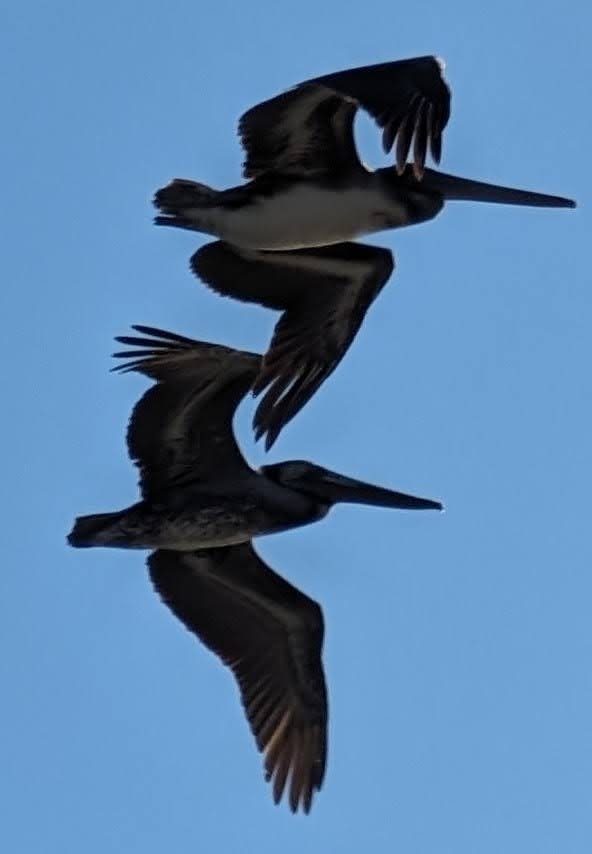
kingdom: Animalia
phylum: Chordata
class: Aves
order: Pelecaniformes
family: Pelecanidae
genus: Pelecanus
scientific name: Pelecanus occidentalis
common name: Brown pelican
